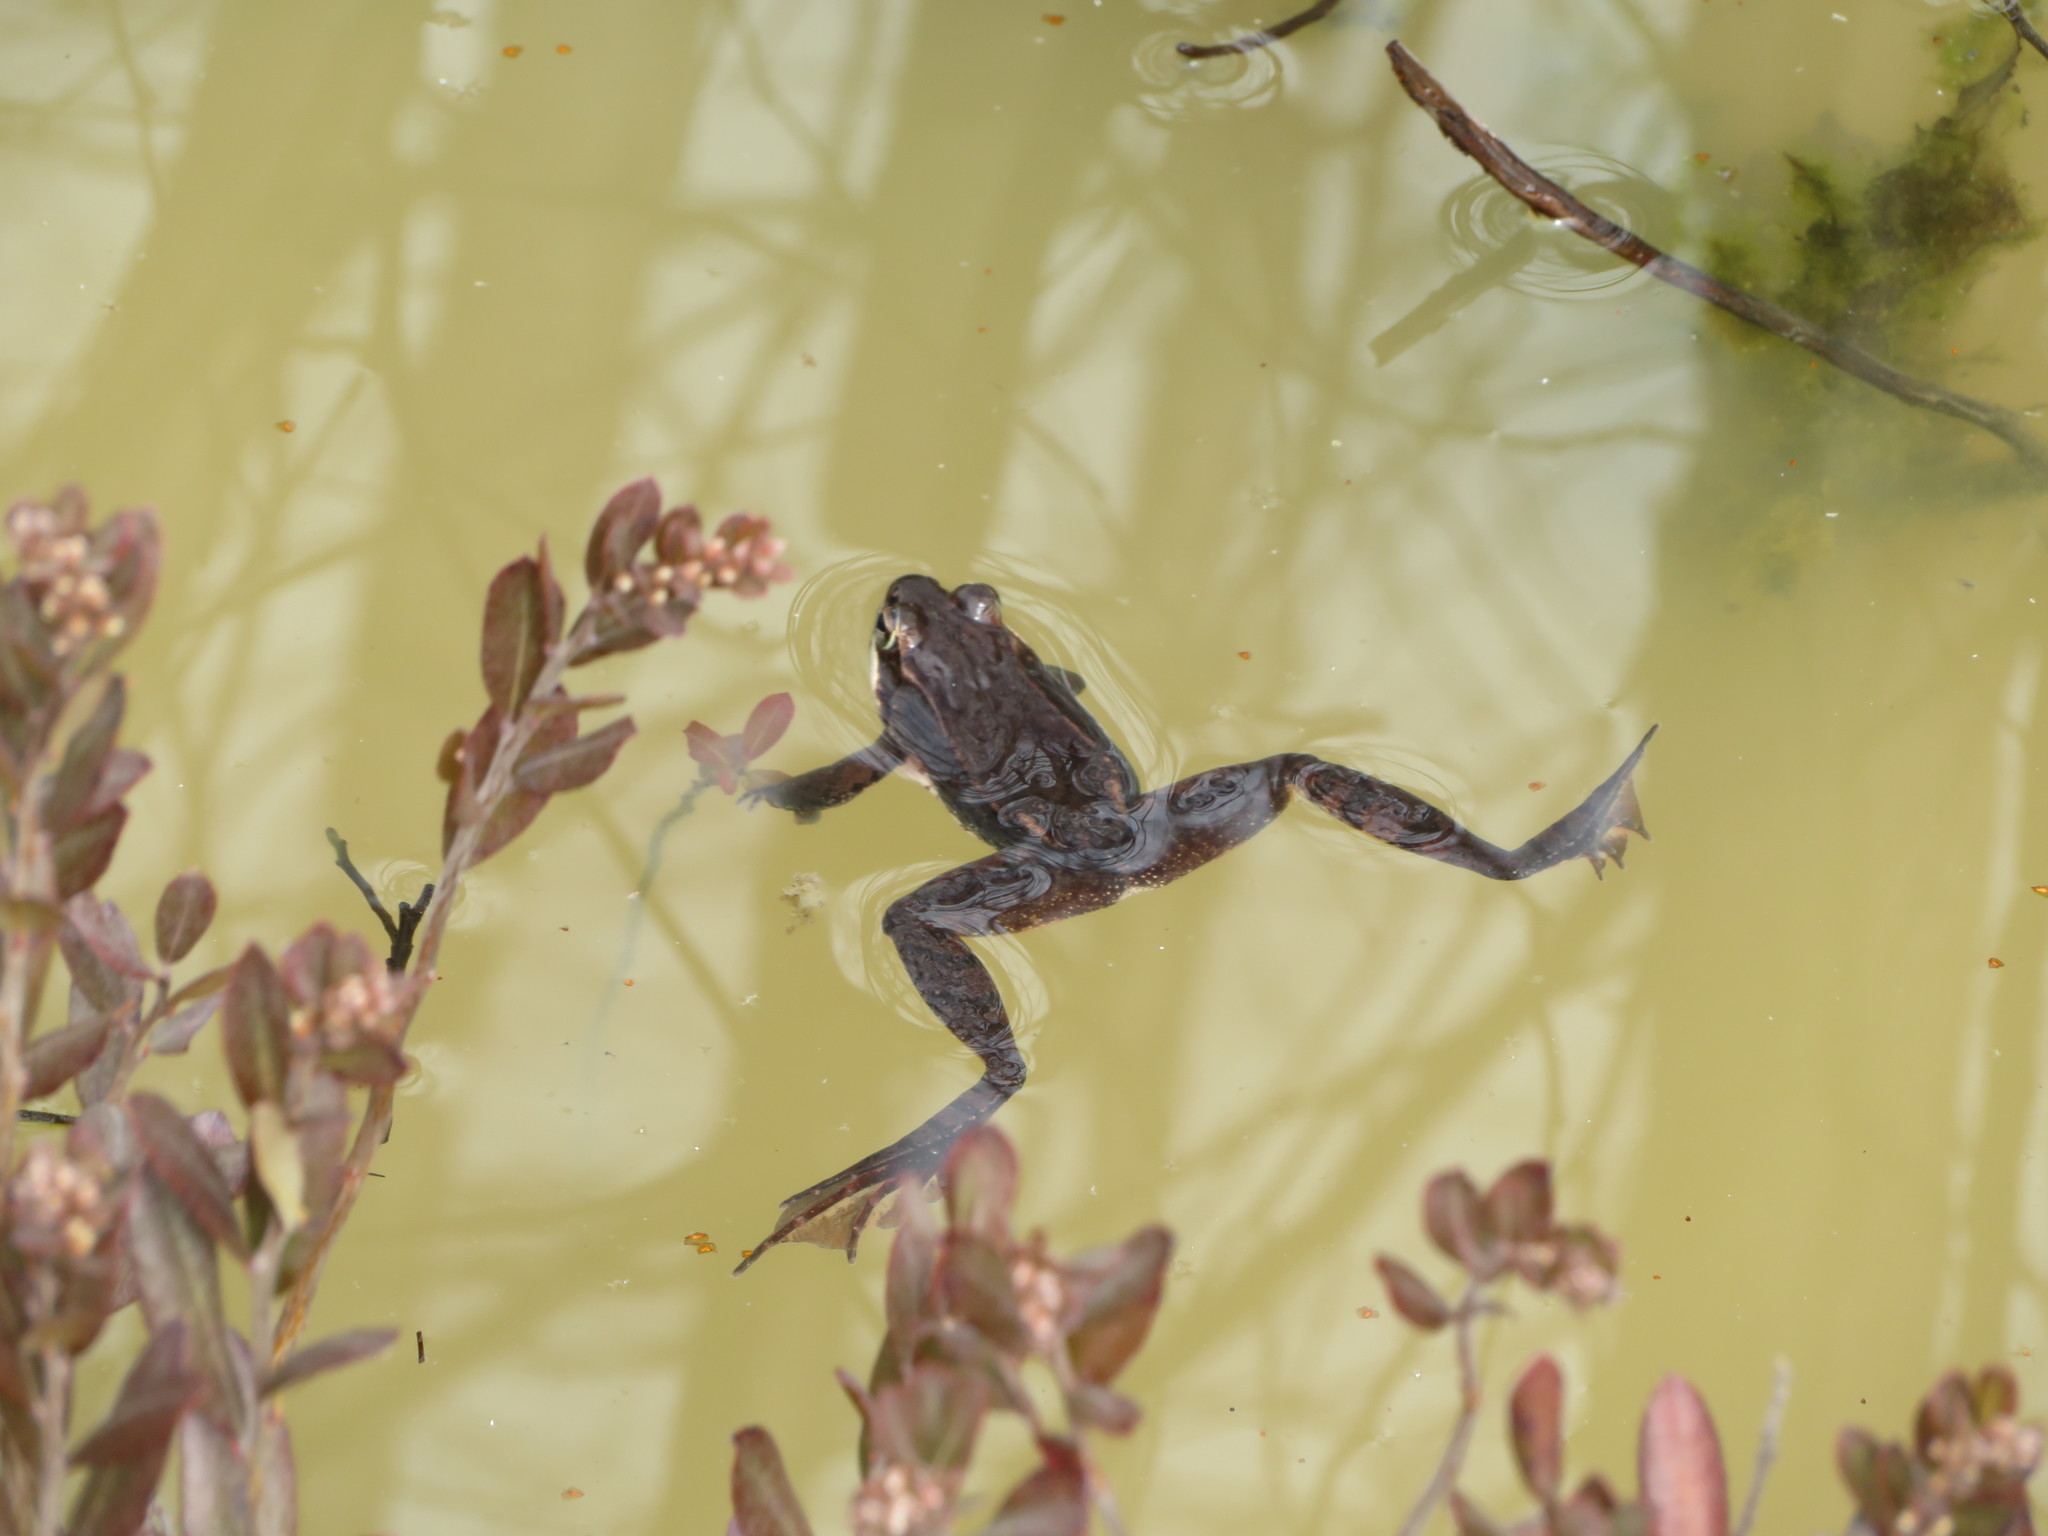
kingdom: Animalia
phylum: Chordata
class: Amphibia
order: Anura
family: Ranidae
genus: Lithobates
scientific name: Lithobates sylvaticus
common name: Wood frog
